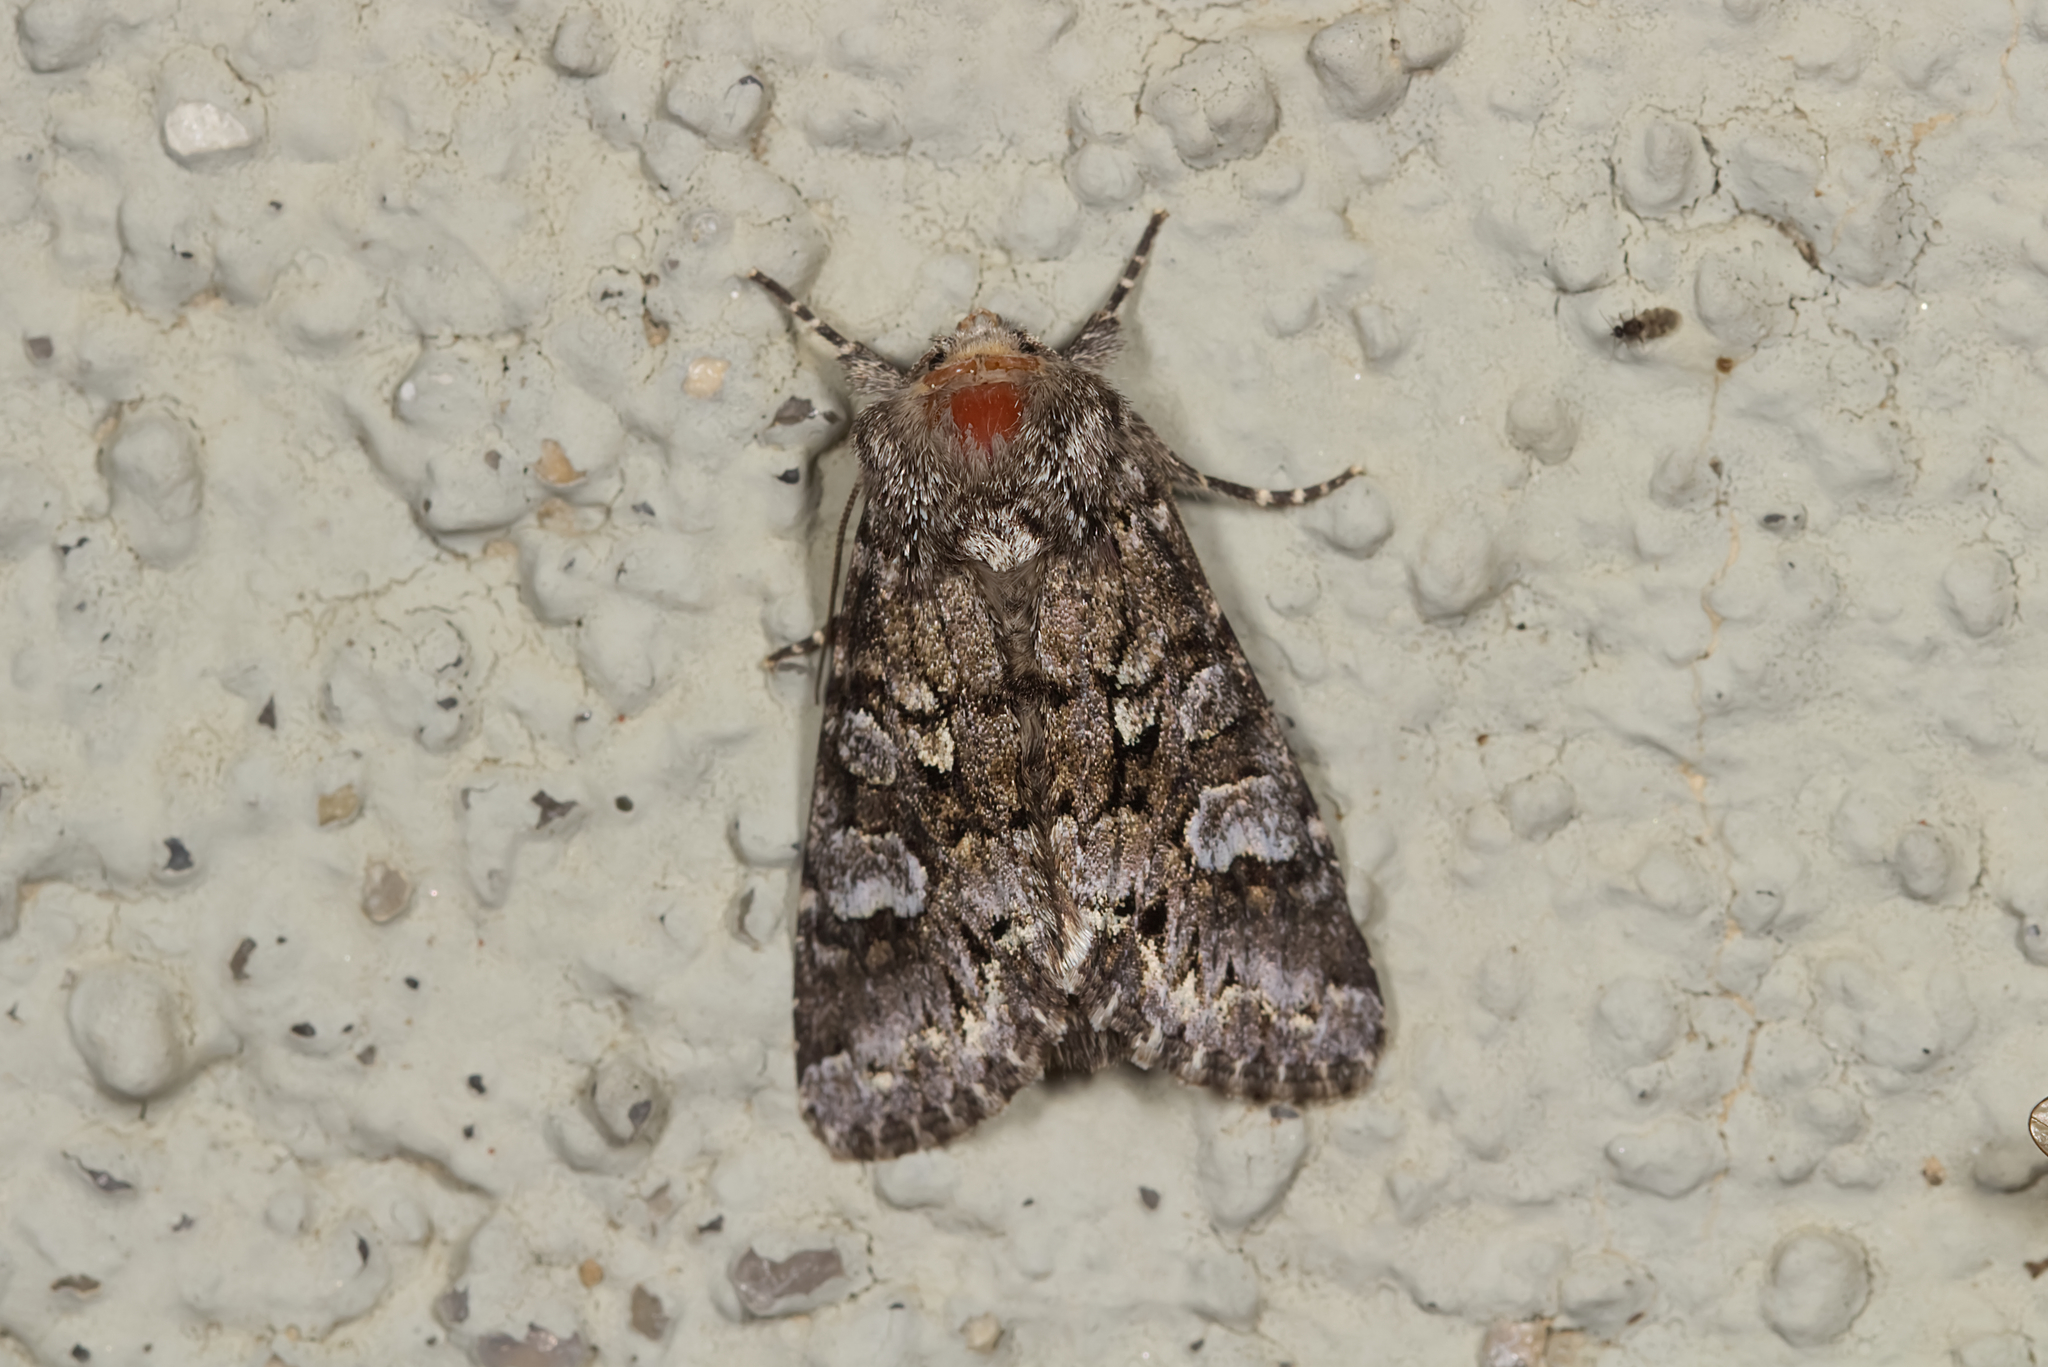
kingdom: Animalia
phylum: Arthropoda
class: Insecta
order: Lepidoptera
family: Noctuidae
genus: Papestra
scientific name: Papestra biren
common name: Glaucous shears
